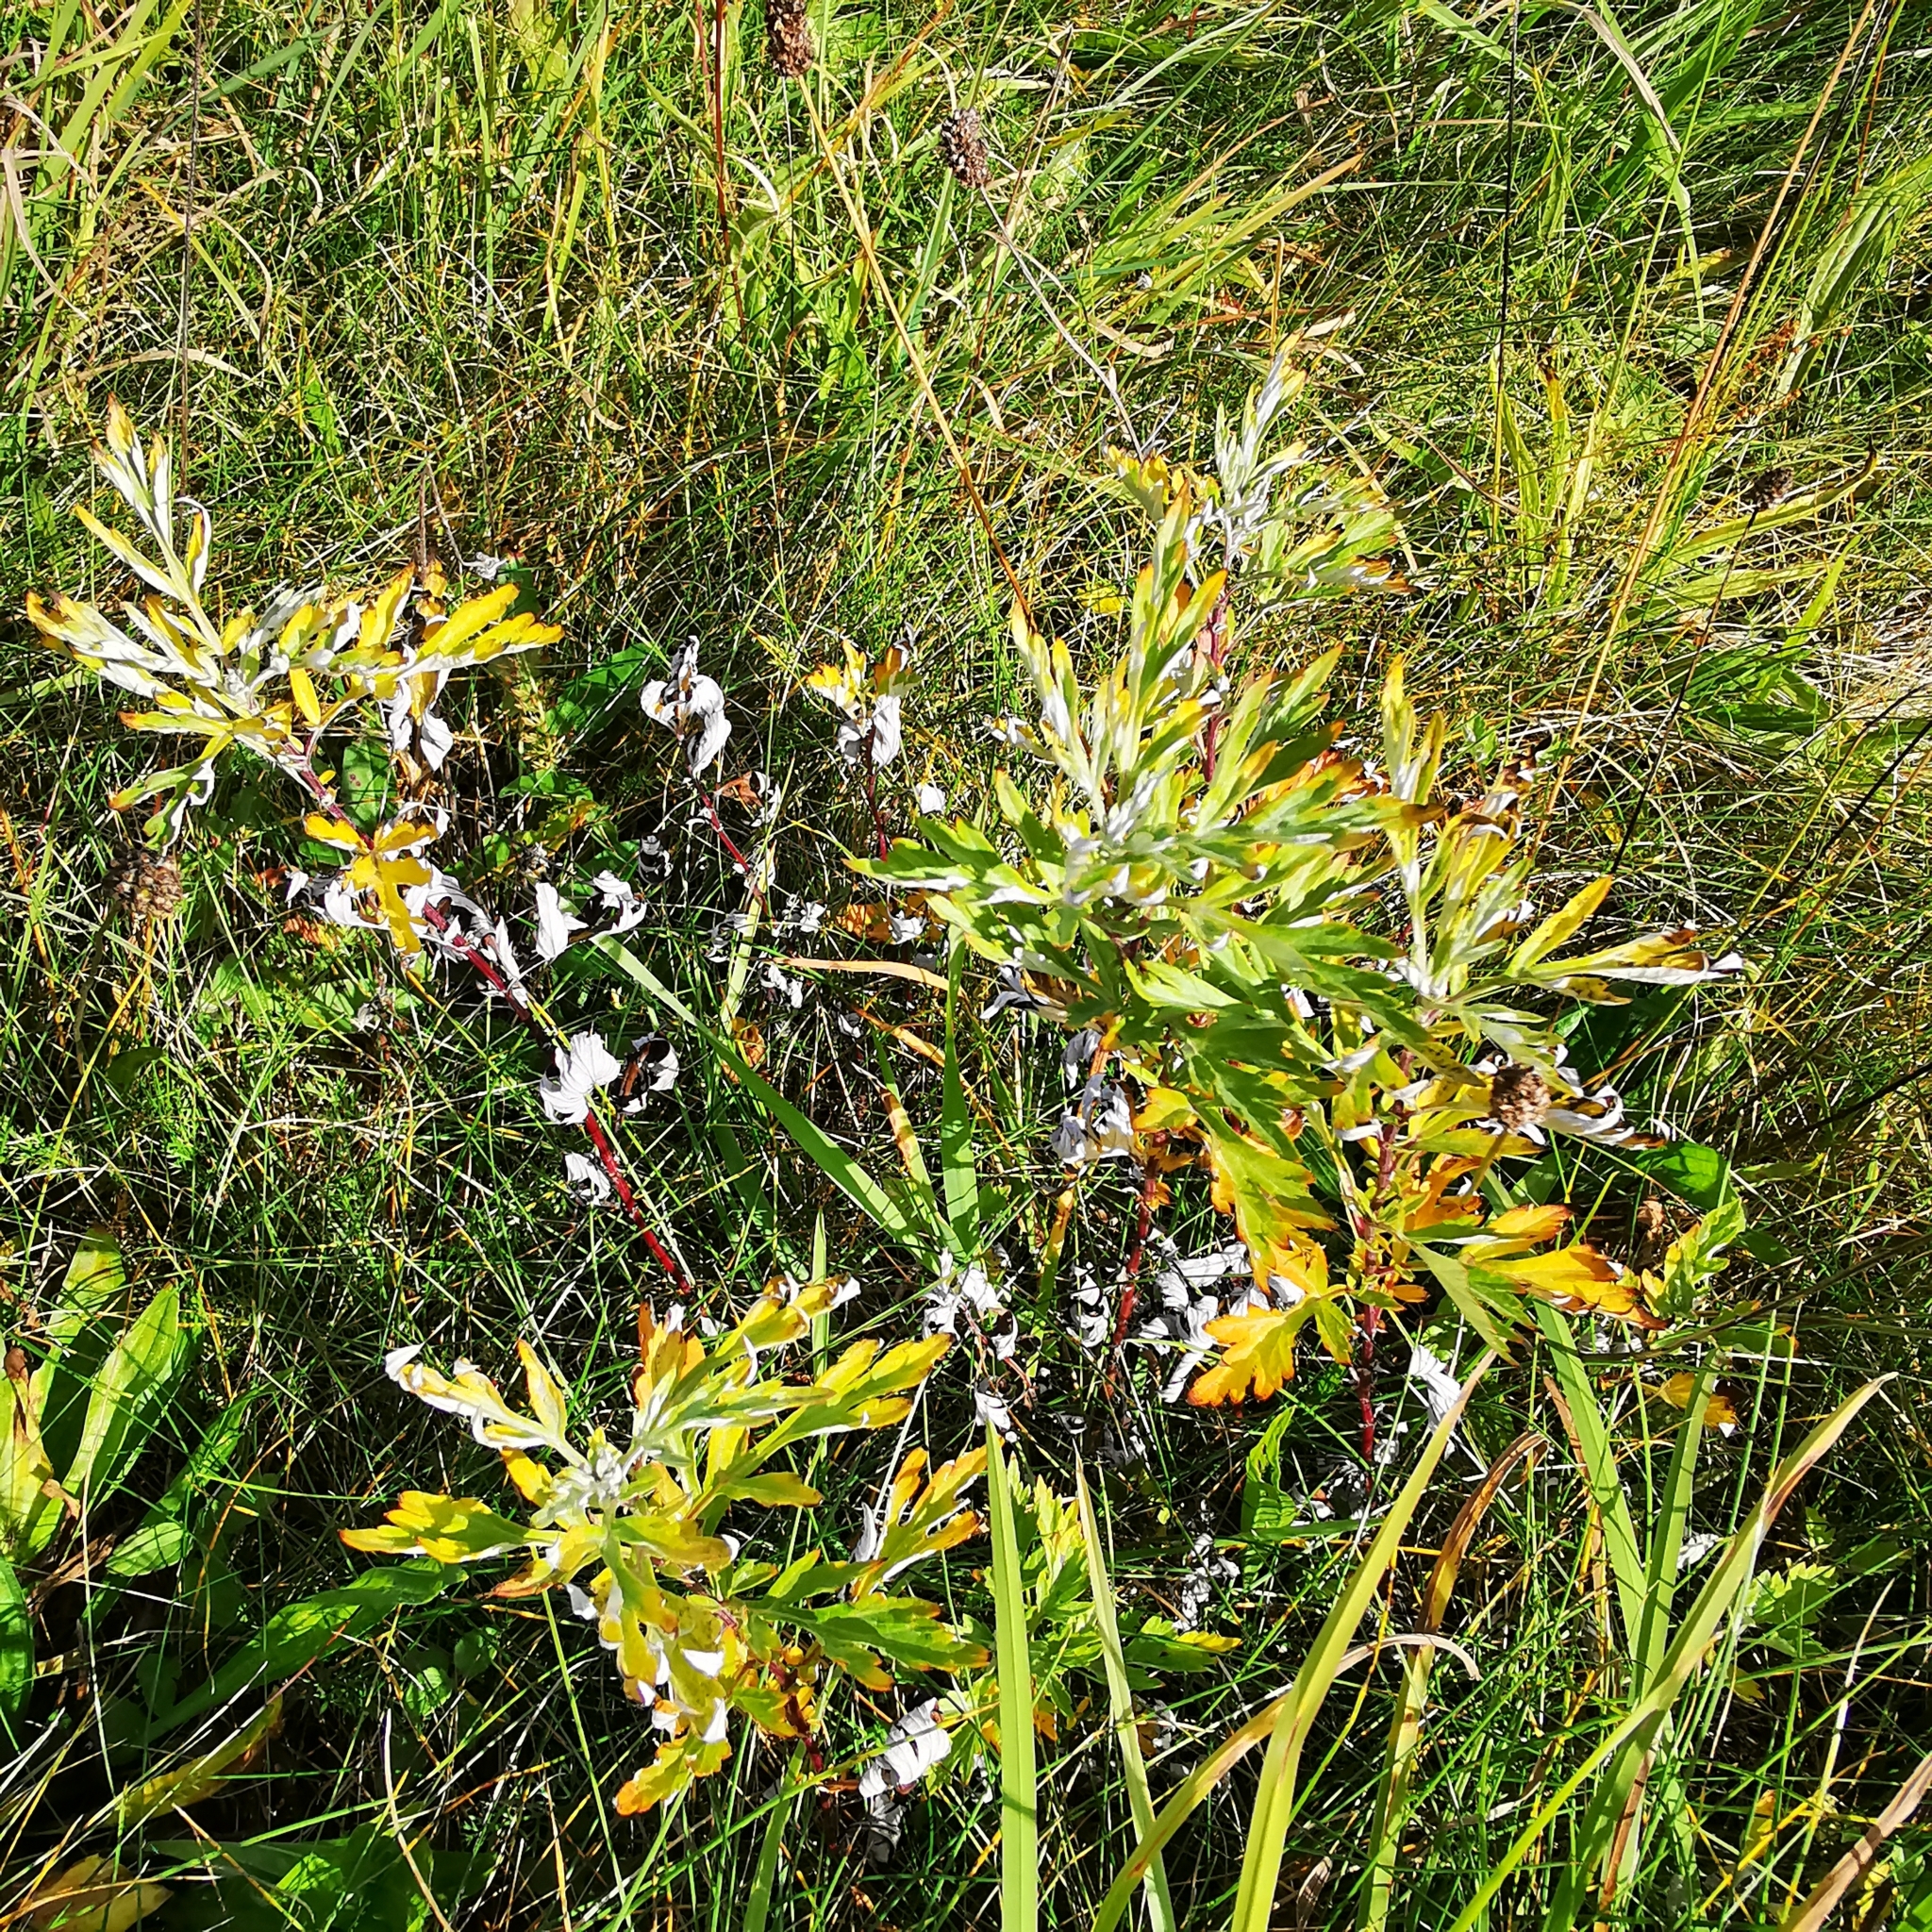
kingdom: Plantae
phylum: Tracheophyta
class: Magnoliopsida
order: Asterales
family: Asteraceae
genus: Artemisia
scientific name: Artemisia vulgaris
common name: Mugwort
